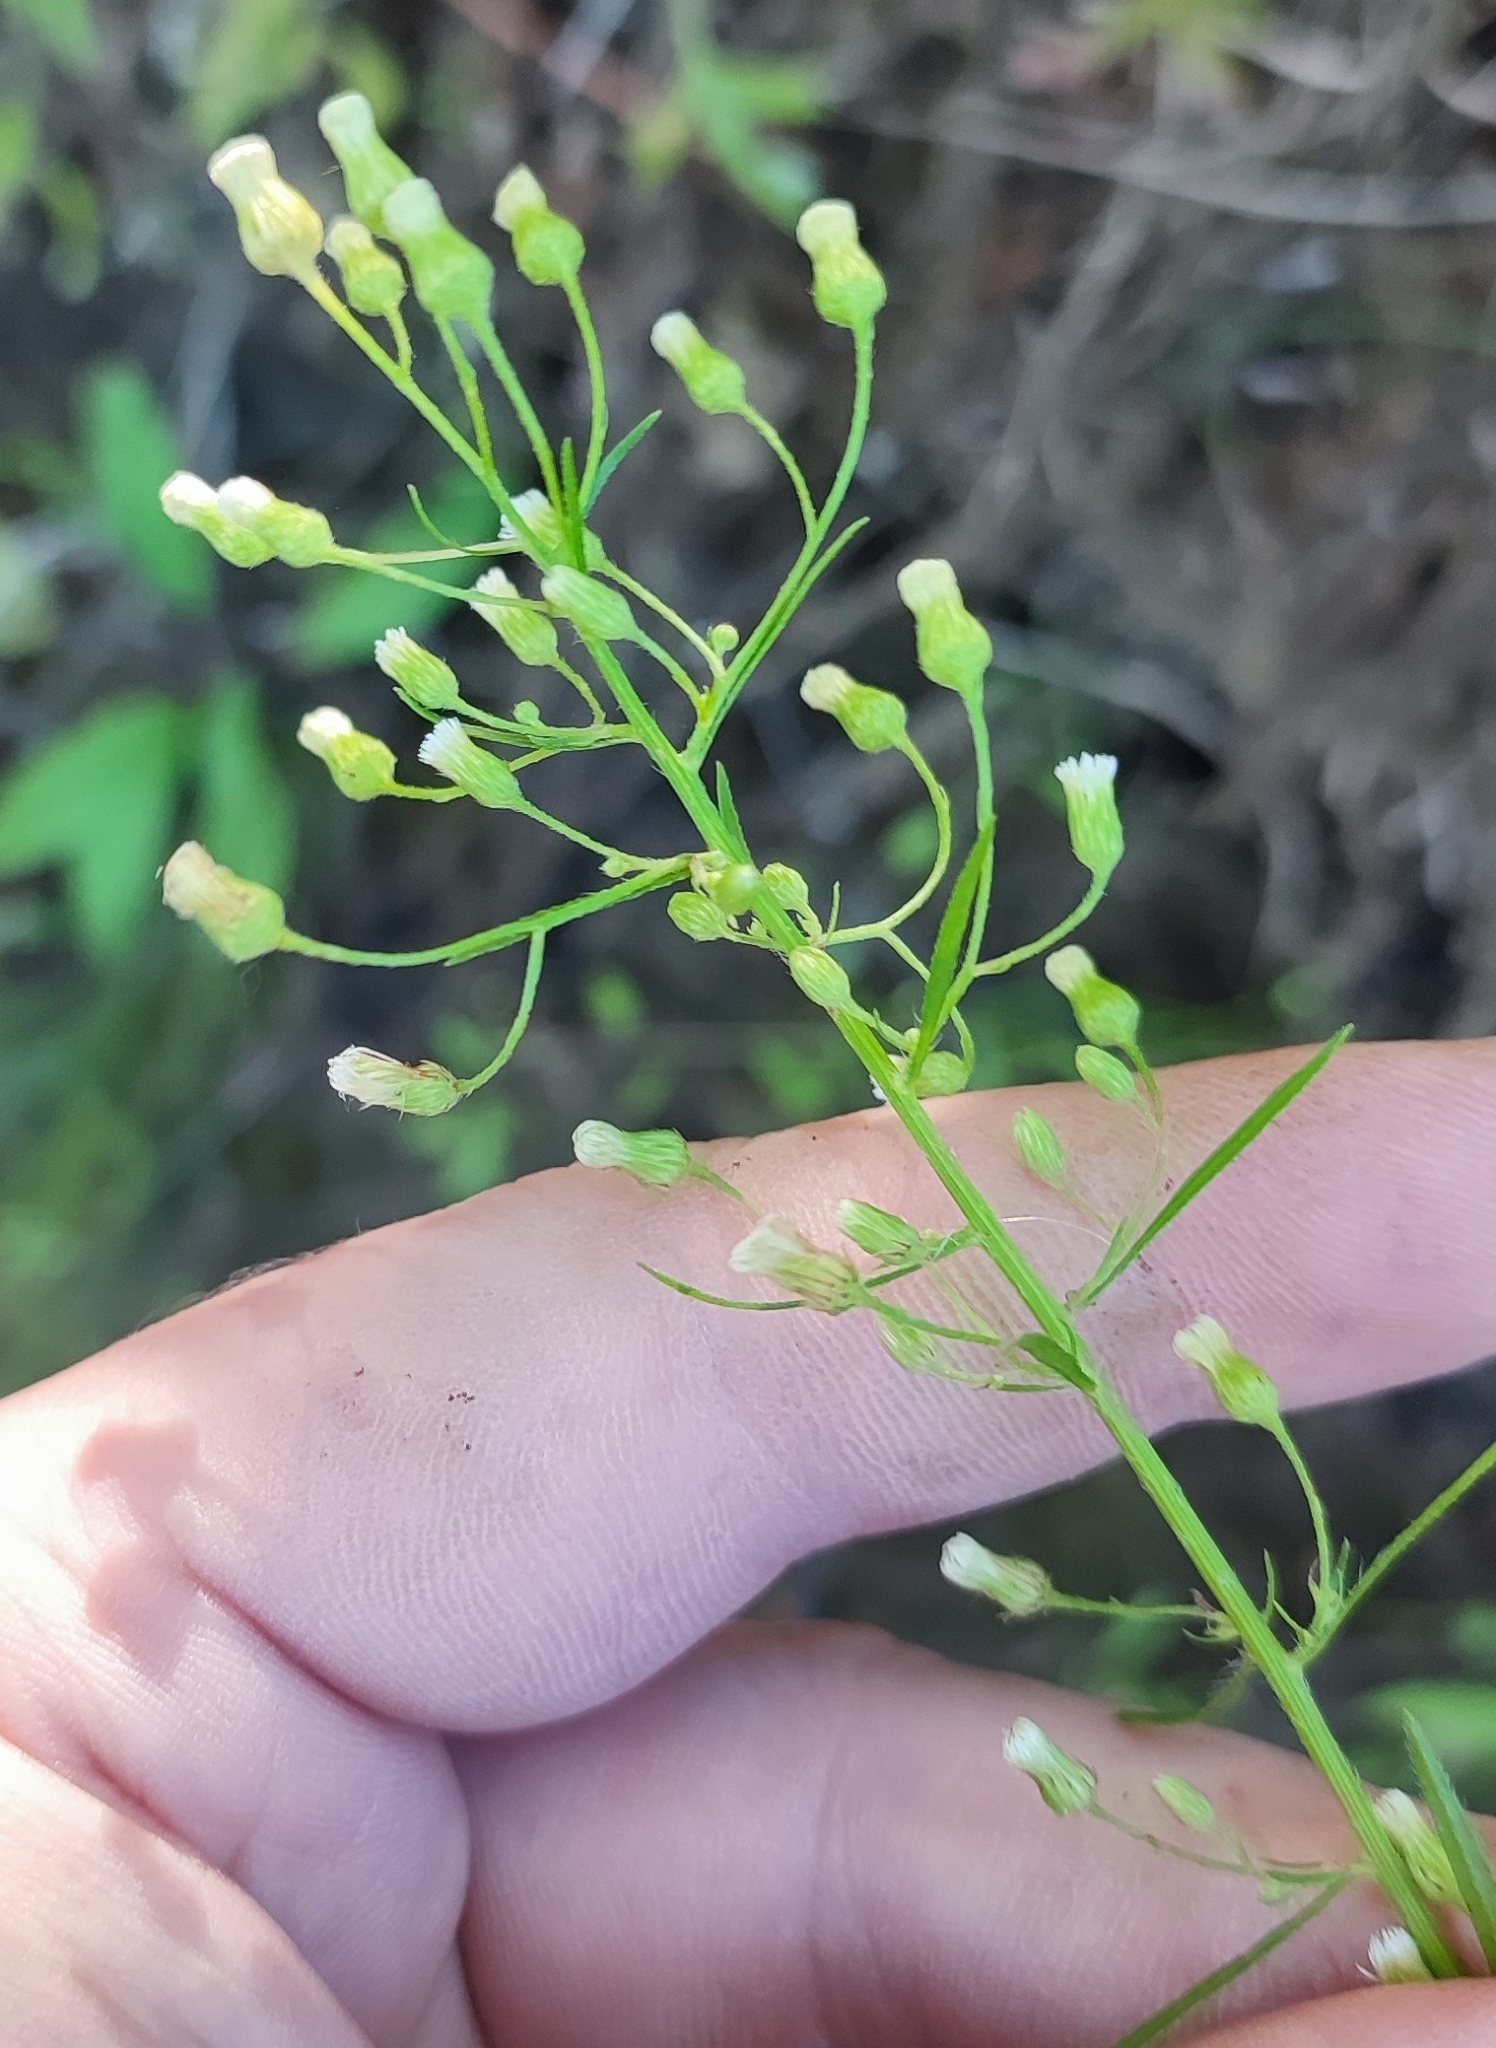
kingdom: Plantae
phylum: Tracheophyta
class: Magnoliopsida
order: Asterales
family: Asteraceae
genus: Erigeron
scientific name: Erigeron canadensis
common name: Canadian fleabane
